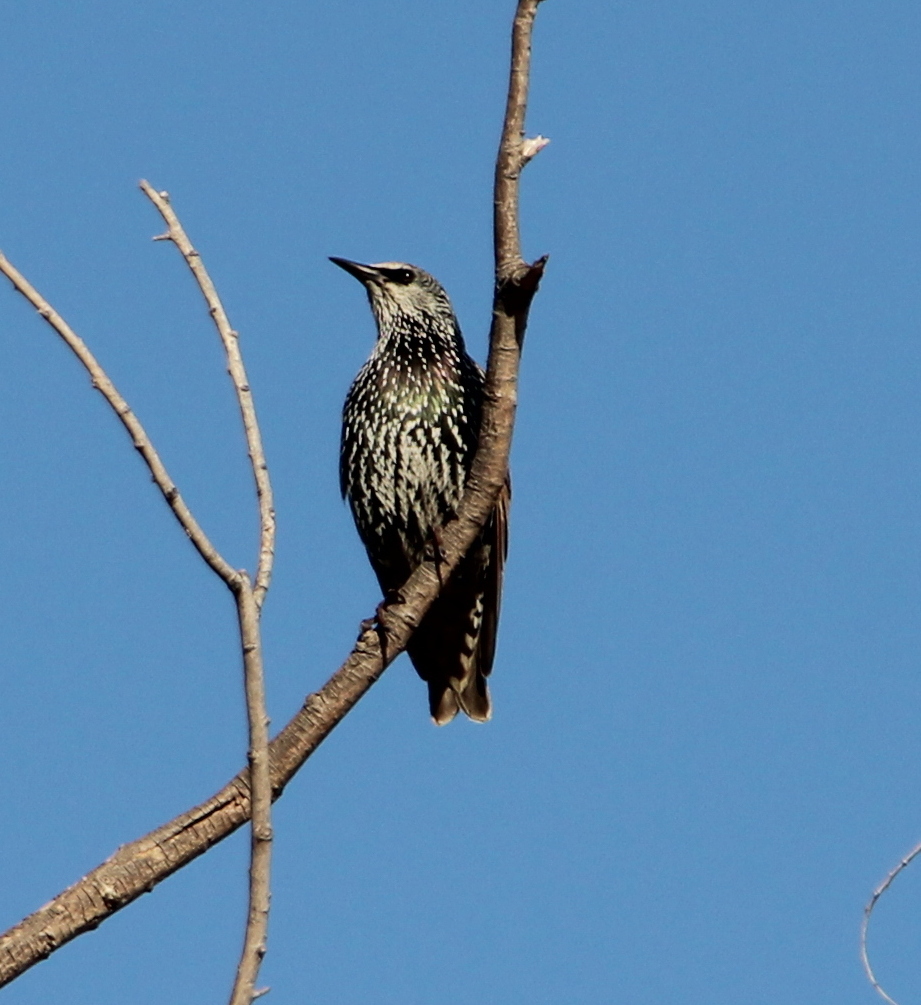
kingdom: Animalia
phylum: Chordata
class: Aves
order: Passeriformes
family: Sturnidae
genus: Sturnus
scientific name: Sturnus vulgaris
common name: Common starling
